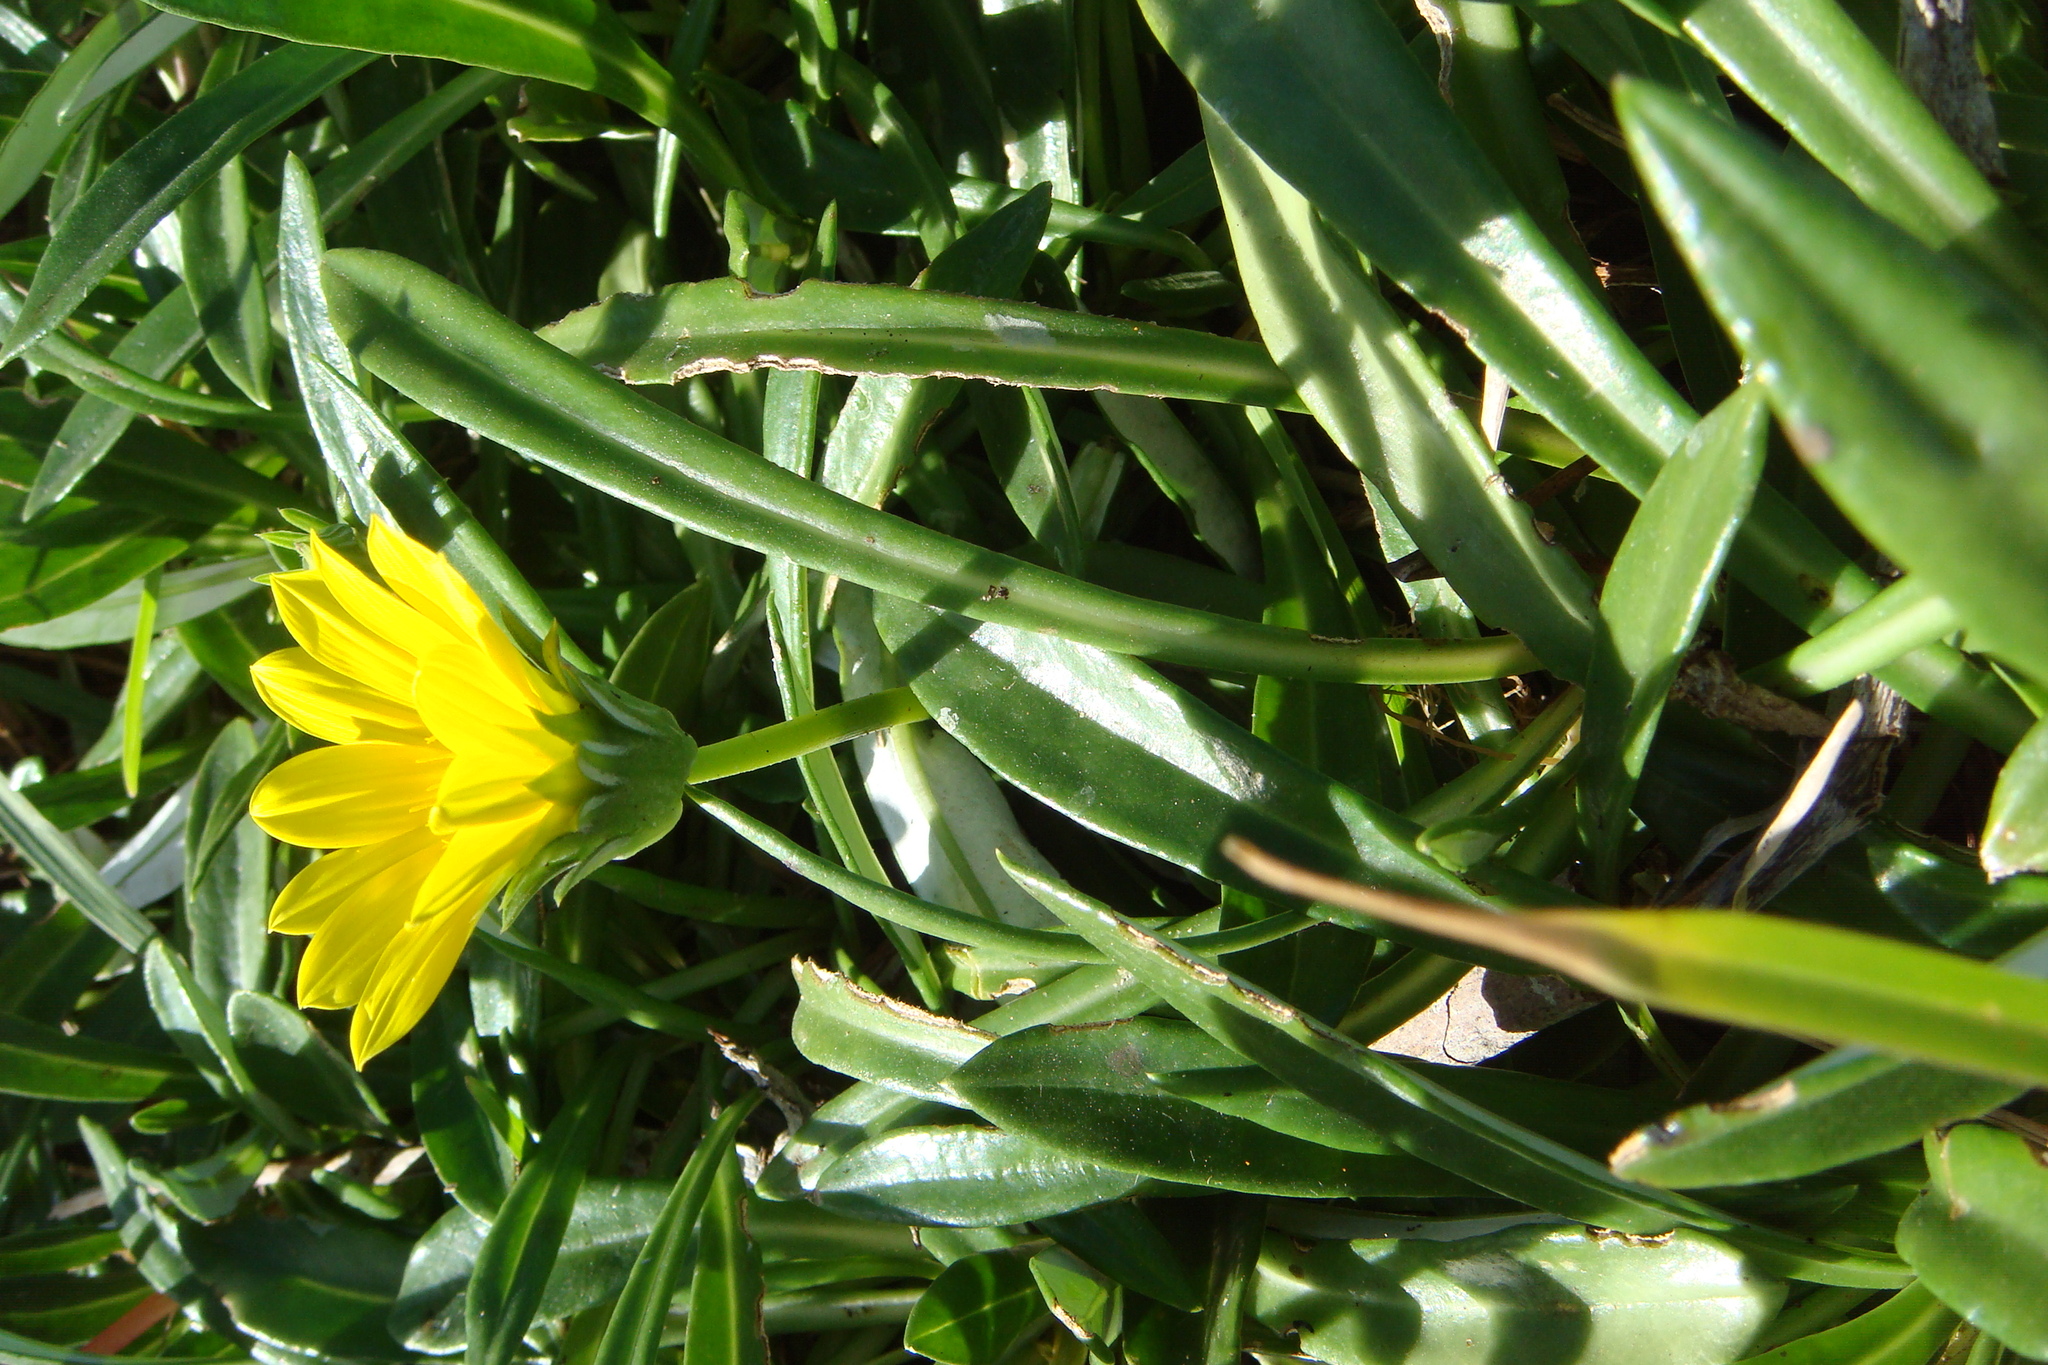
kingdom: Plantae
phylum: Tracheophyta
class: Magnoliopsida
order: Asterales
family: Asteraceae
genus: Gazania
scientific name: Gazania rigens
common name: Treasureflower
